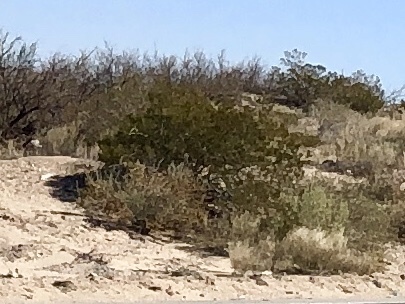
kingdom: Plantae
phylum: Tracheophyta
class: Magnoliopsida
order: Zygophyllales
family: Zygophyllaceae
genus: Larrea
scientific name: Larrea tridentata
